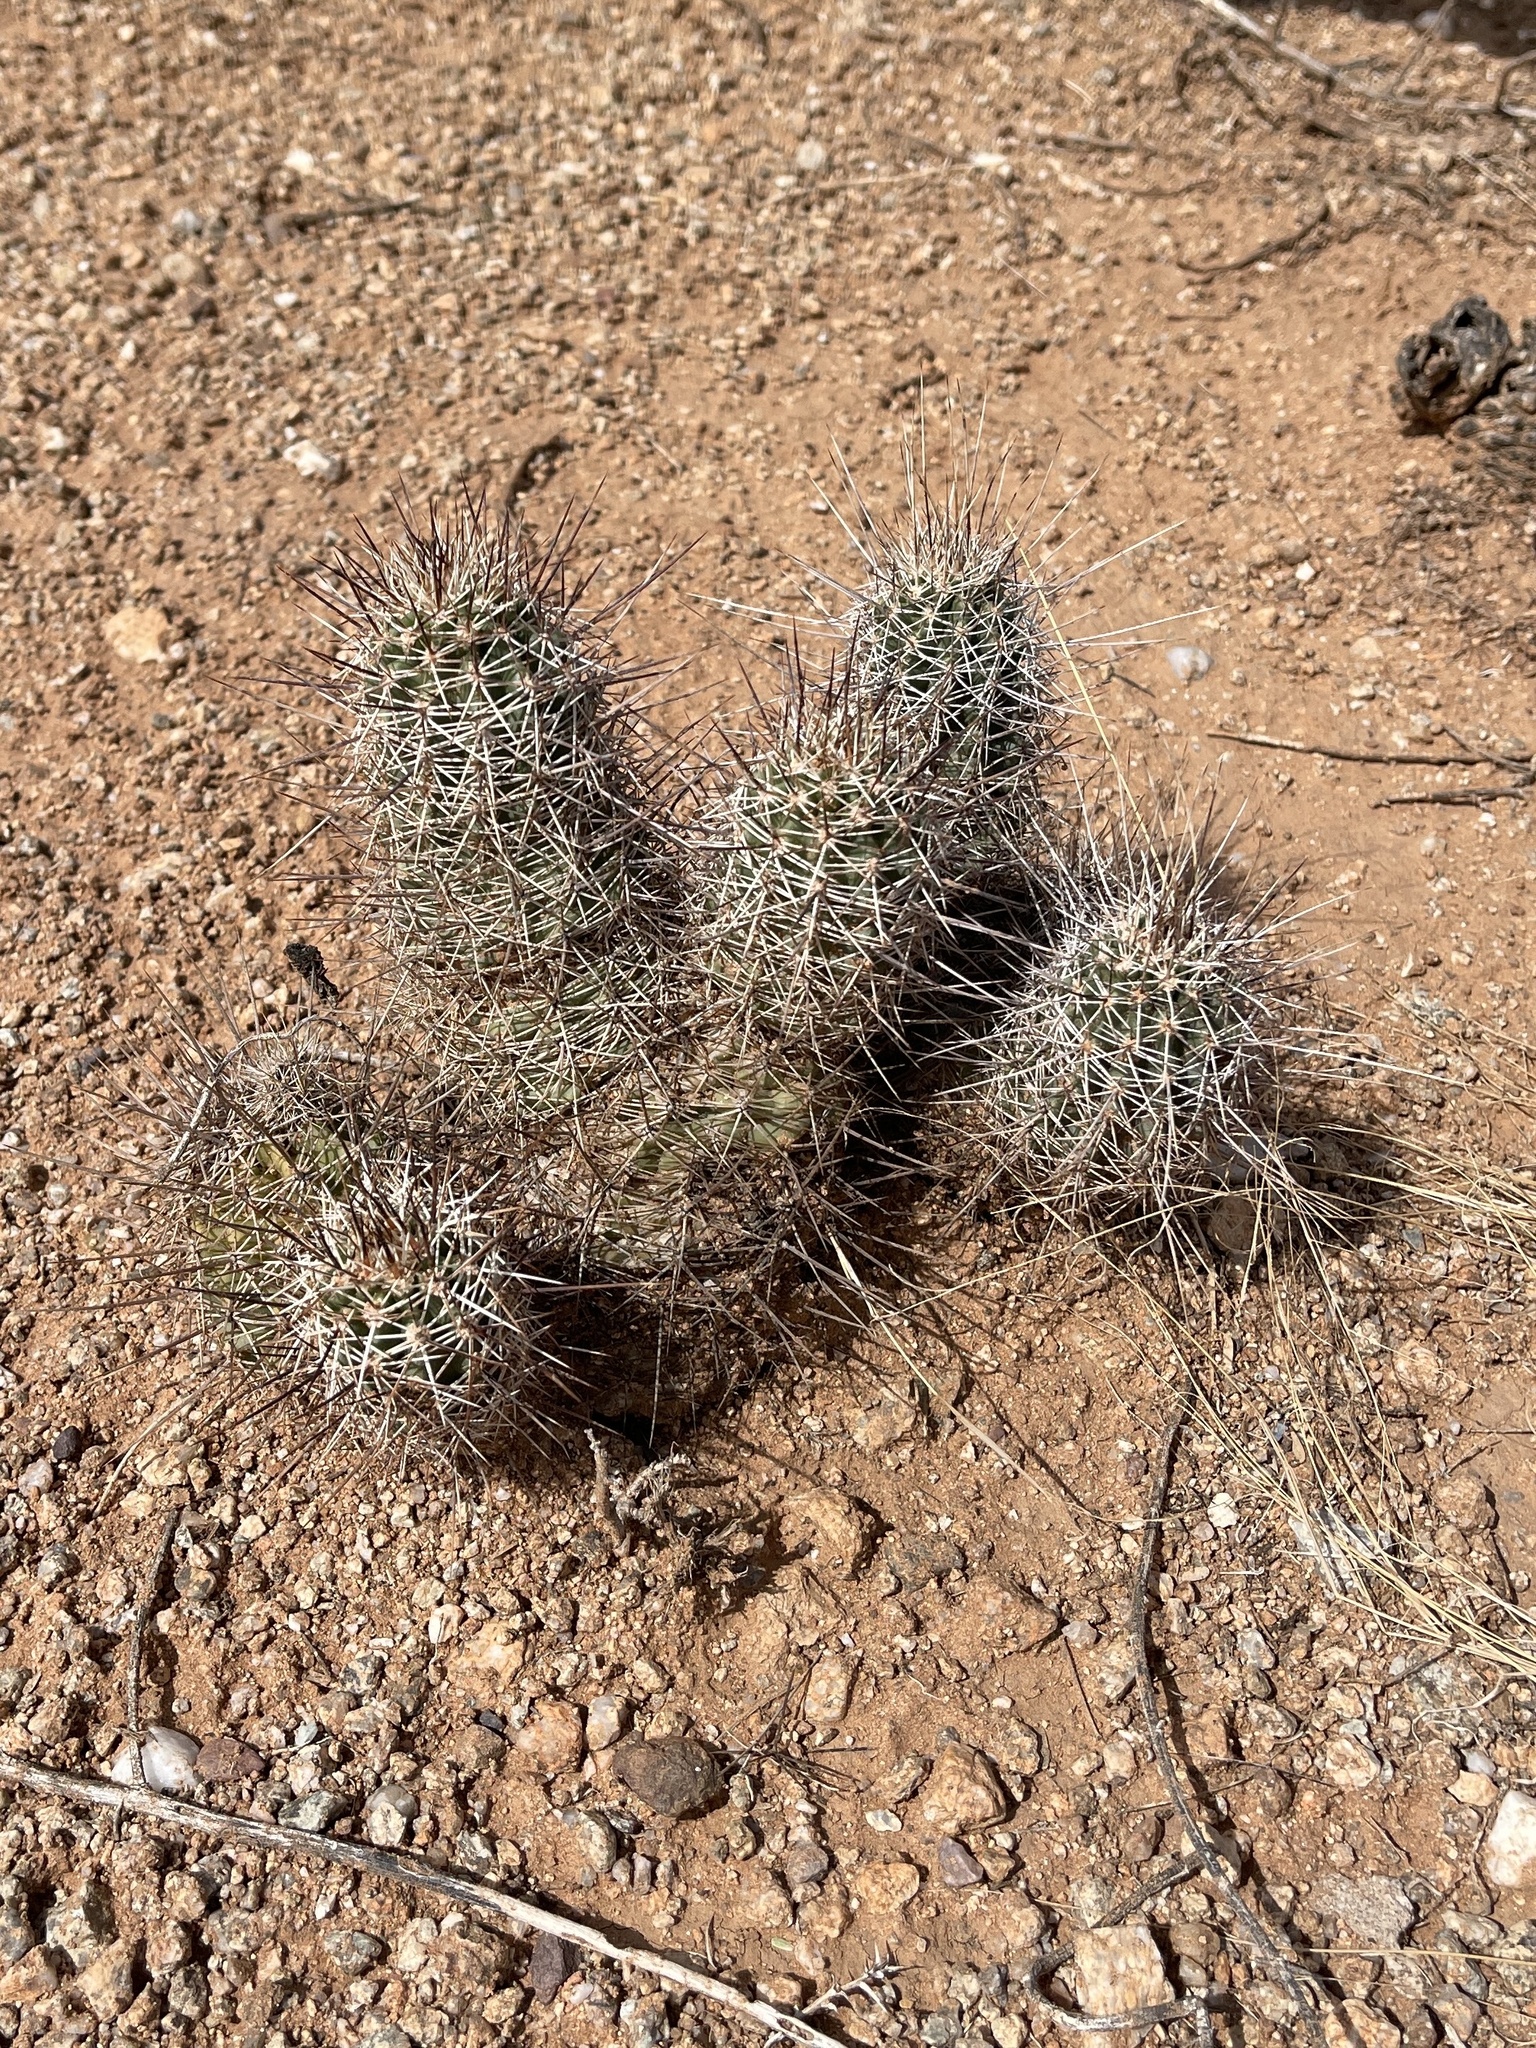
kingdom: Plantae
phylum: Tracheophyta
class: Magnoliopsida
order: Caryophyllales
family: Cactaceae
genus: Echinocereus
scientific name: Echinocereus fasciculatus
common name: Bundle hedgehog
